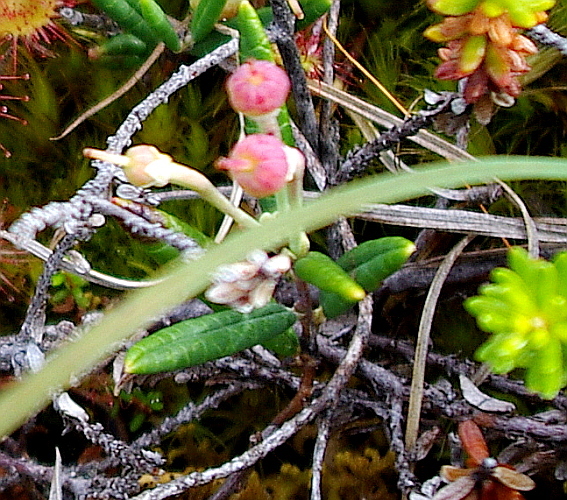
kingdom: Plantae
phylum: Tracheophyta
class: Magnoliopsida
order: Ericales
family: Ericaceae
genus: Andromeda
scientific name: Andromeda polifolia
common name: Bog-rosemary
